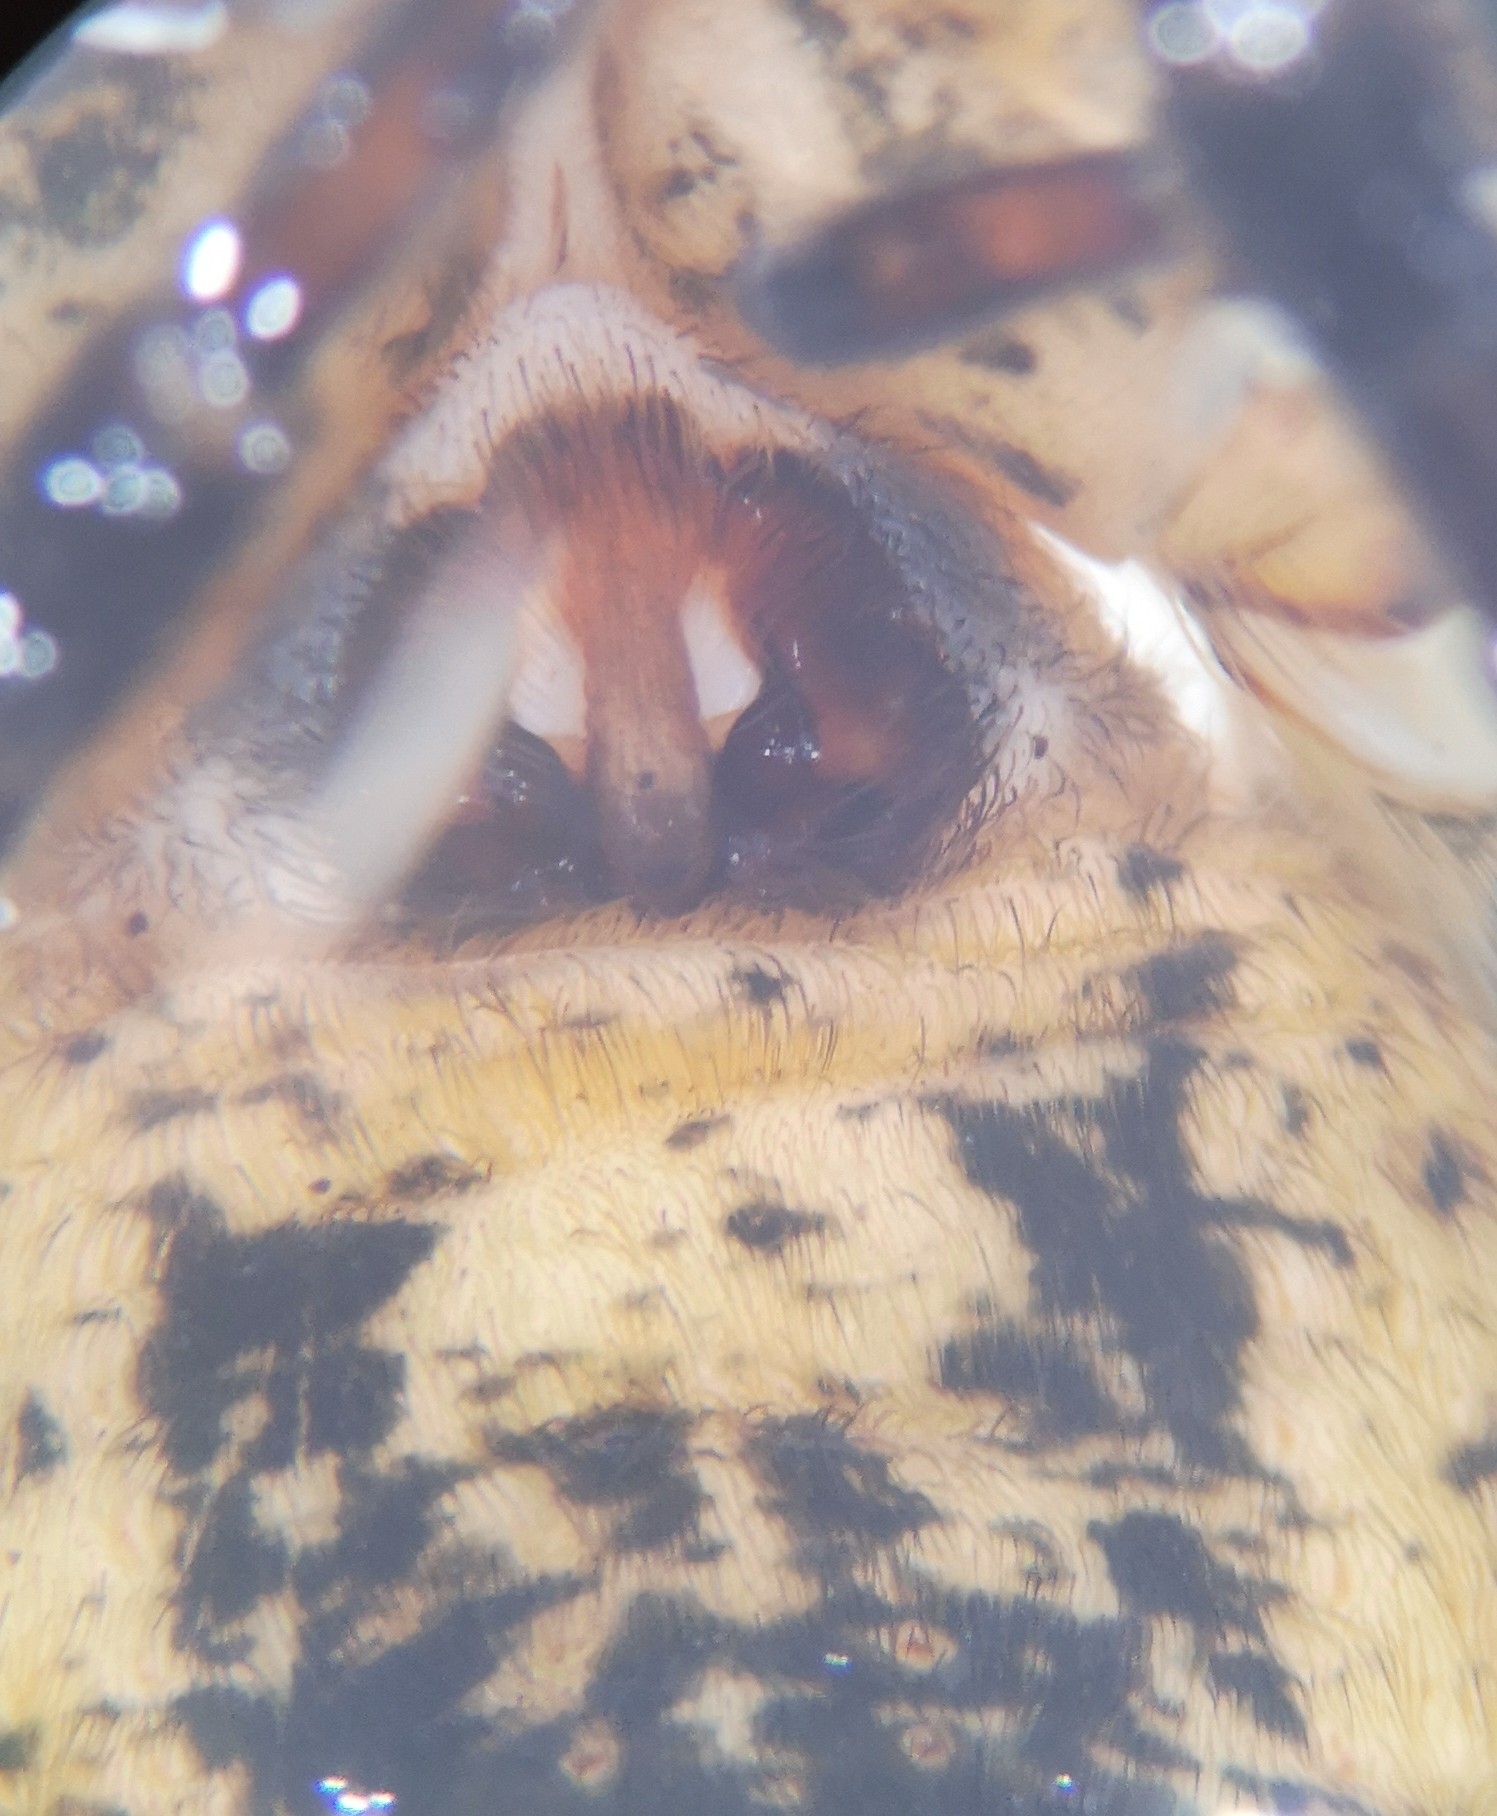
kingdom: Animalia
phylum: Arthropoda
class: Arachnida
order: Araneae
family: Zoropsidae
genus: Zoropsis
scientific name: Zoropsis spinimana
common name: Zoropsid spider
